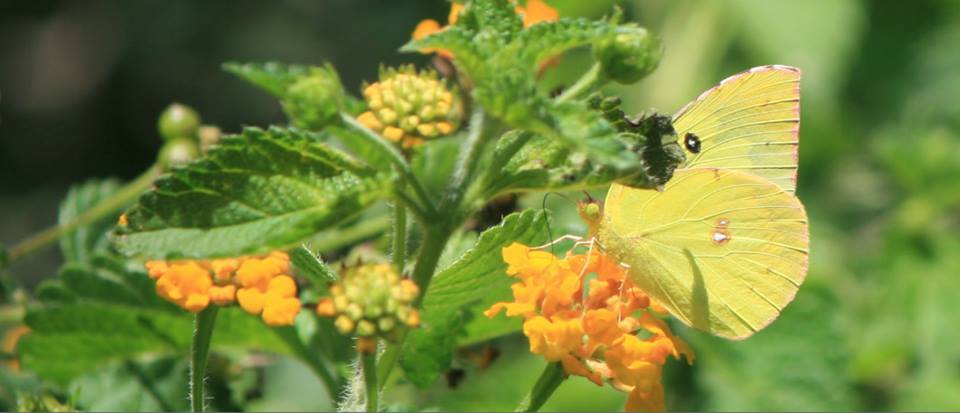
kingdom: Animalia
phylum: Arthropoda
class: Insecta
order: Lepidoptera
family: Pieridae
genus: Zerene
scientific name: Zerene cesonia
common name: Southern dogface
